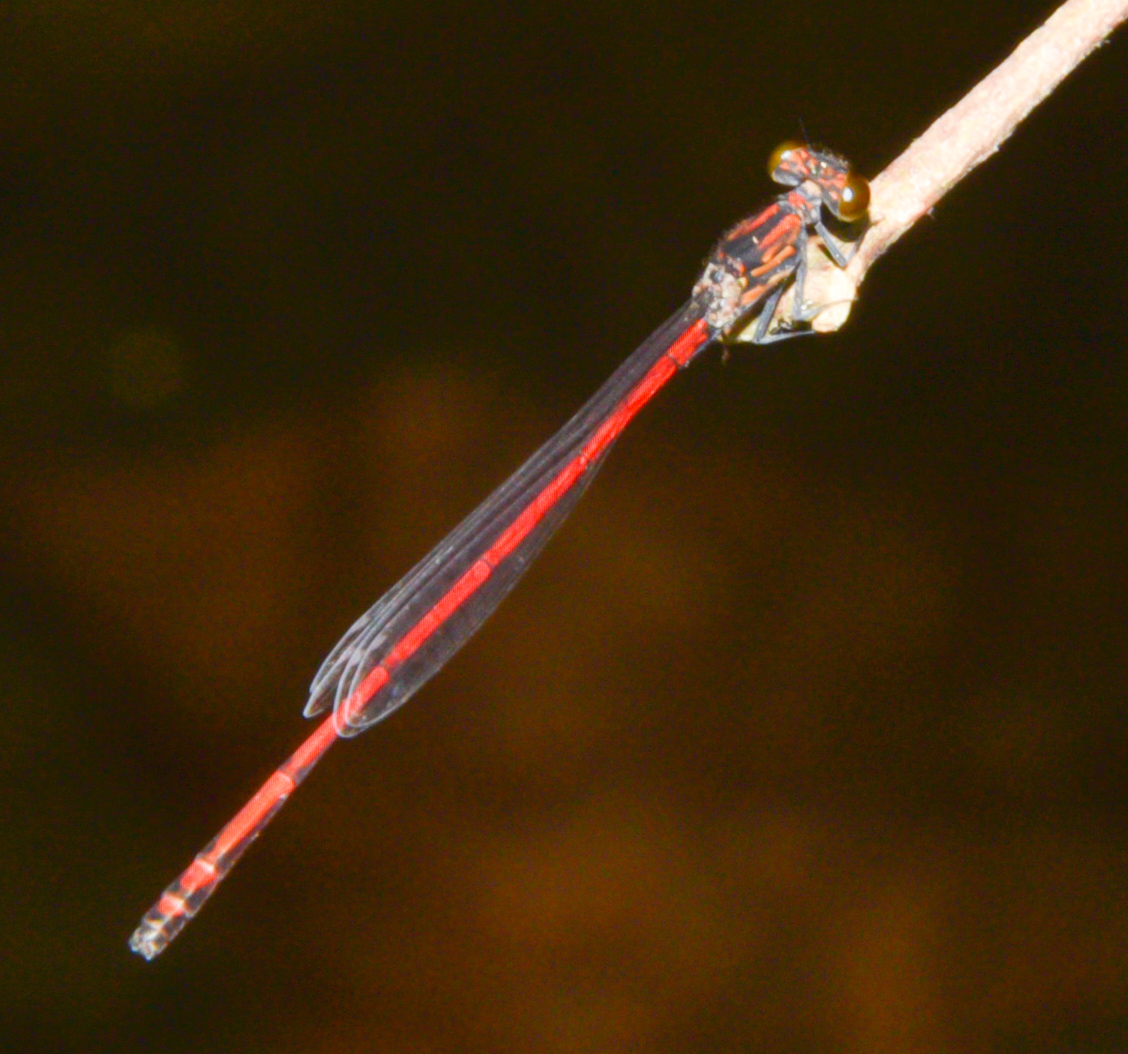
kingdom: Animalia
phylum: Arthropoda
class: Insecta
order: Odonata
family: Coenagrionidae
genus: Protoneura
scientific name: Protoneura amatoria
